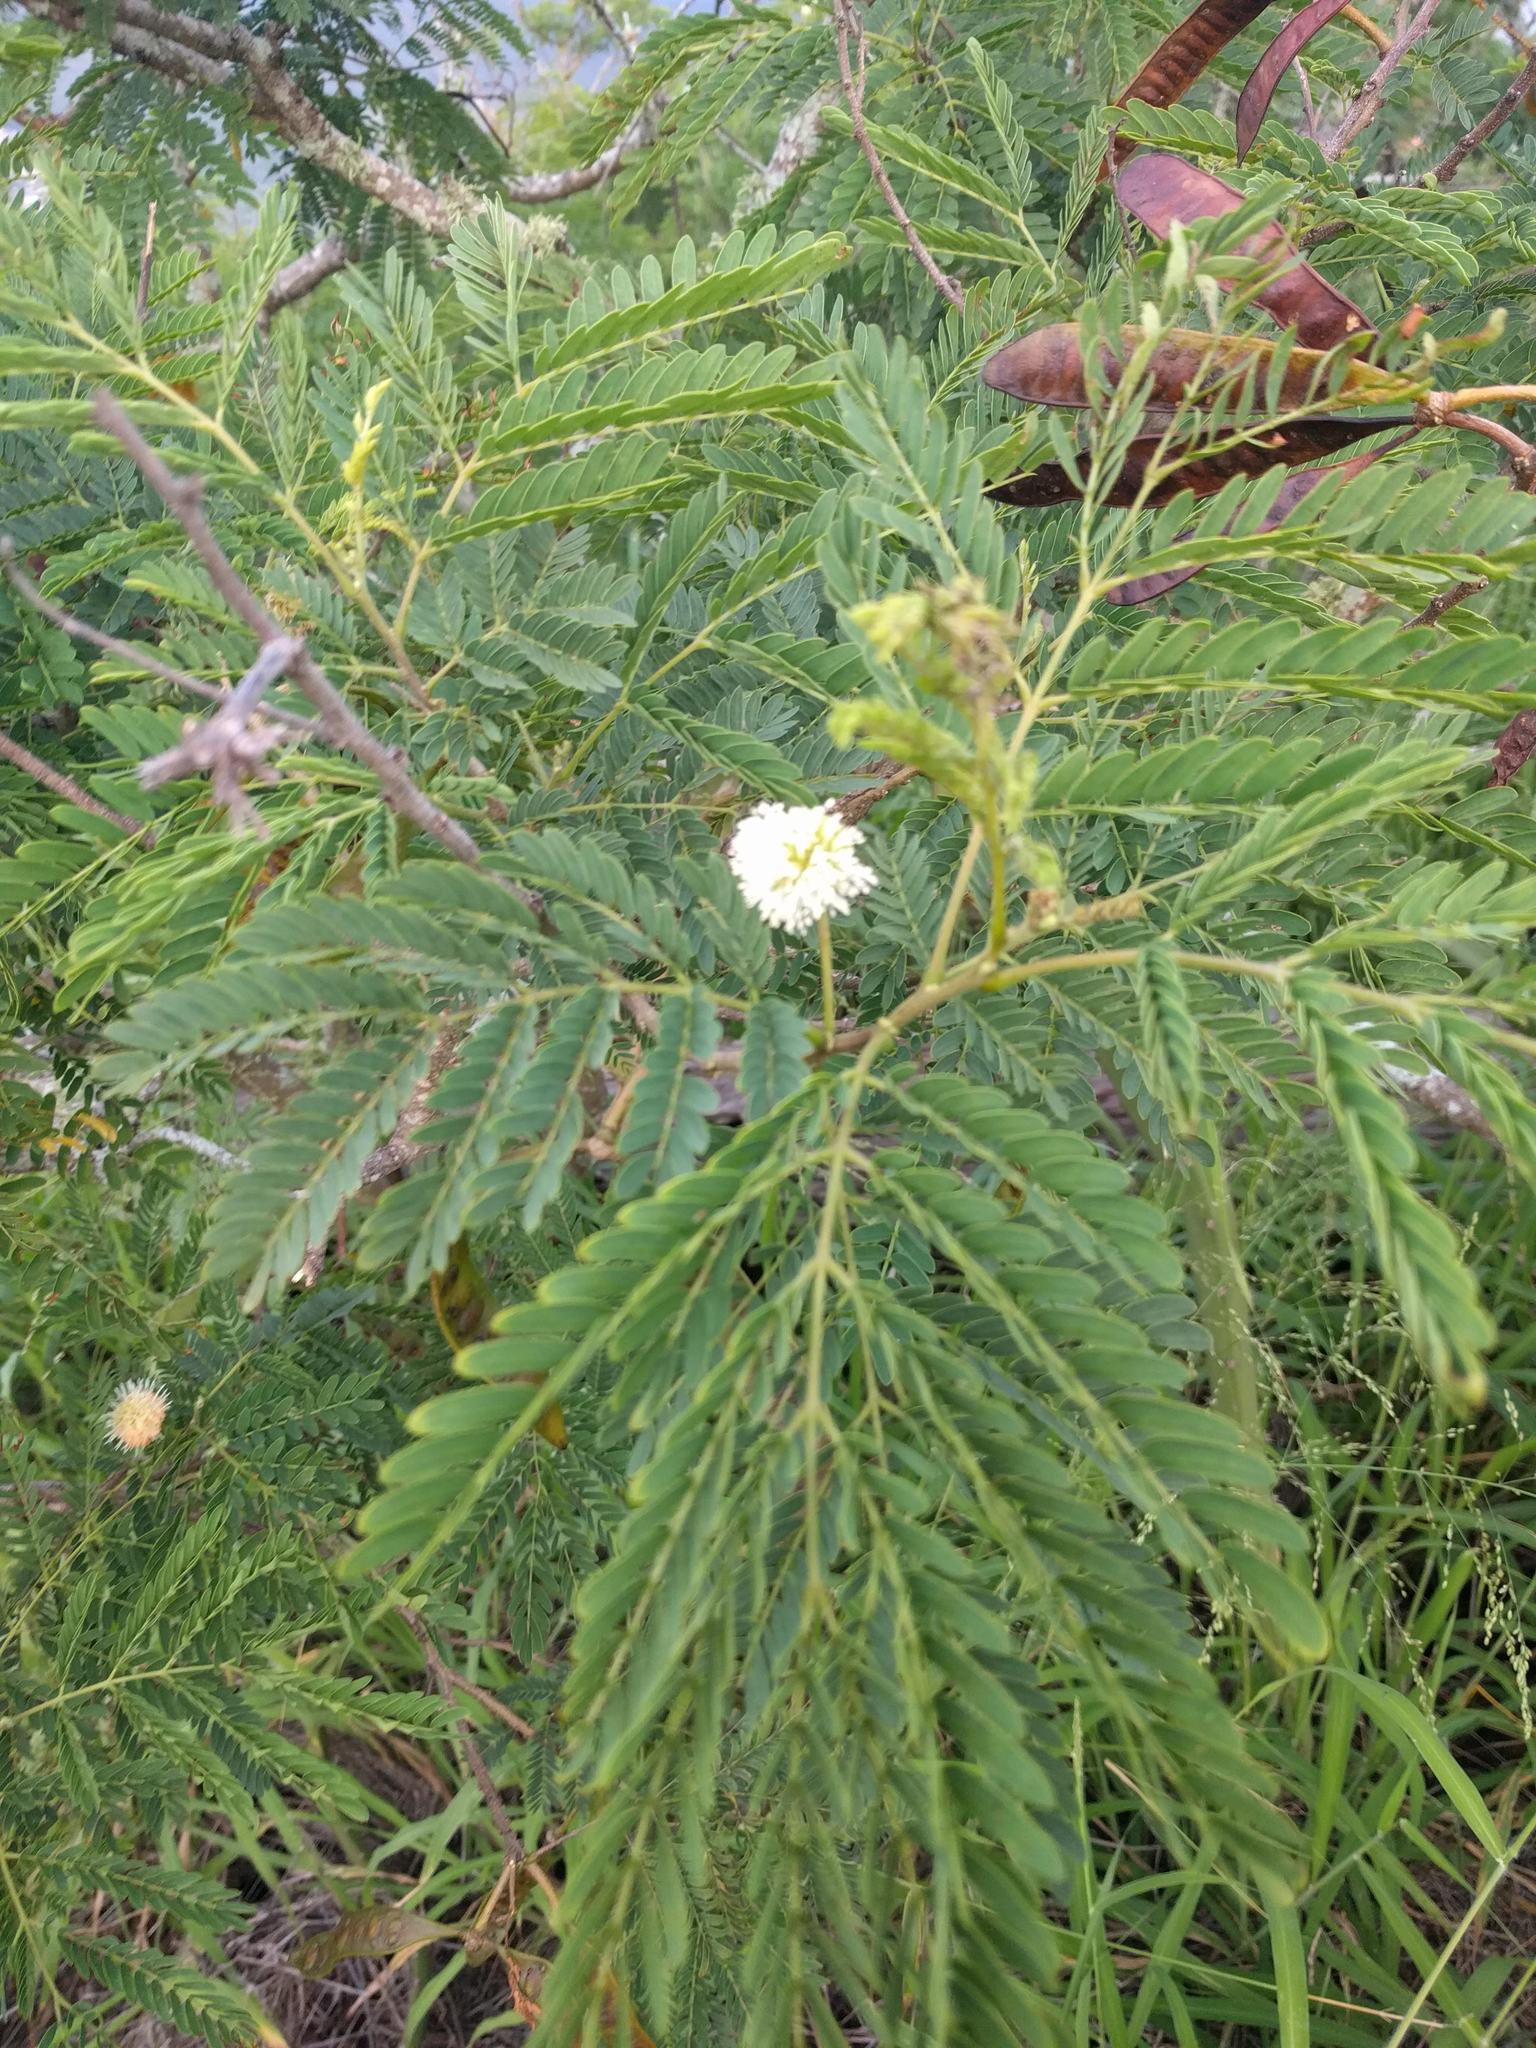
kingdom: Plantae
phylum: Tracheophyta
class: Magnoliopsida
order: Fabales
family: Fabaceae
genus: Leucaena
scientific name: Leucaena leucocephala
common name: White leadtree
